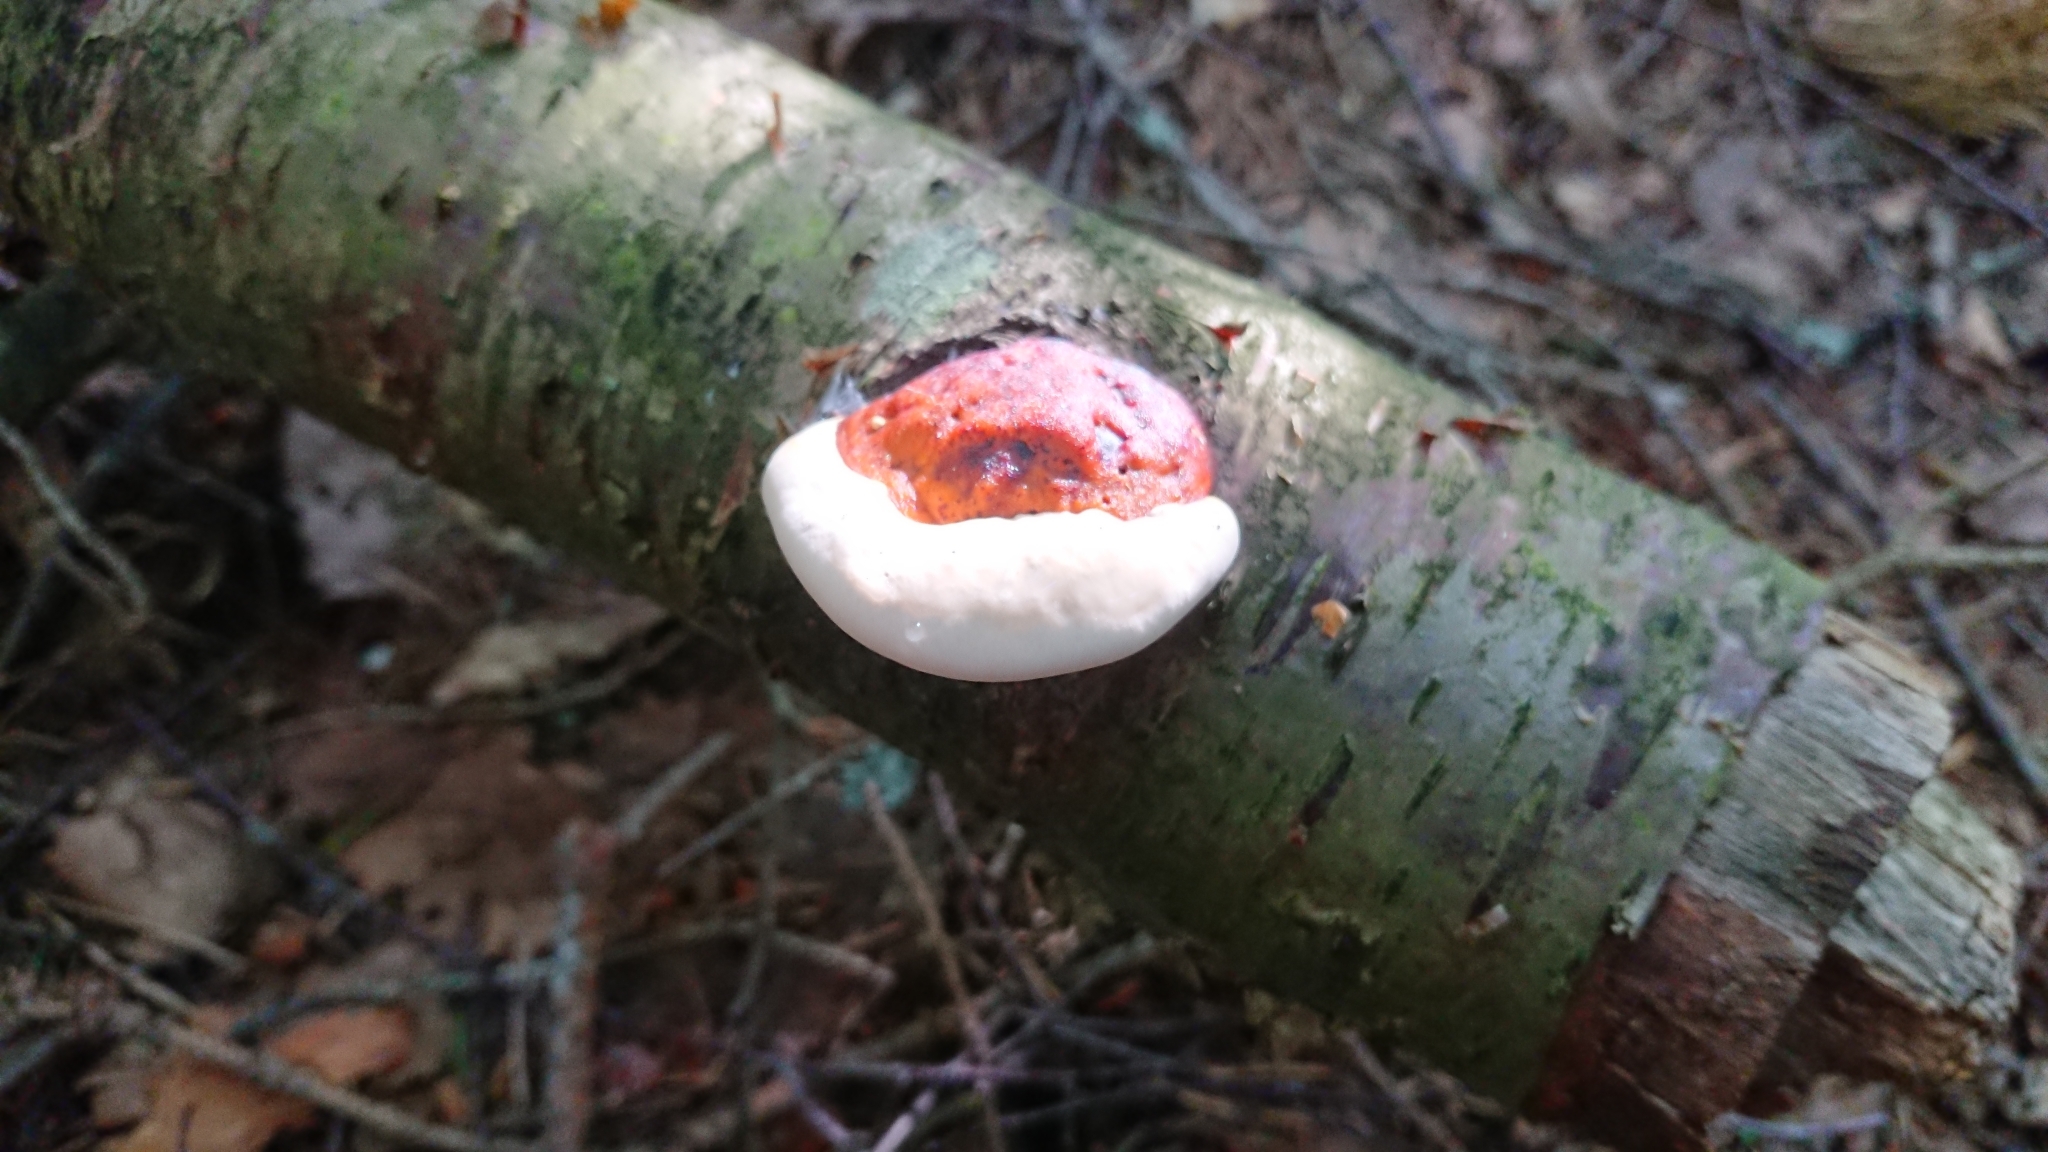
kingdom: Fungi
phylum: Basidiomycota
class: Agaricomycetes
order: Polyporales
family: Fomitopsidaceae
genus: Fomitopsis
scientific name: Fomitopsis pinicola
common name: Red-belted bracket
